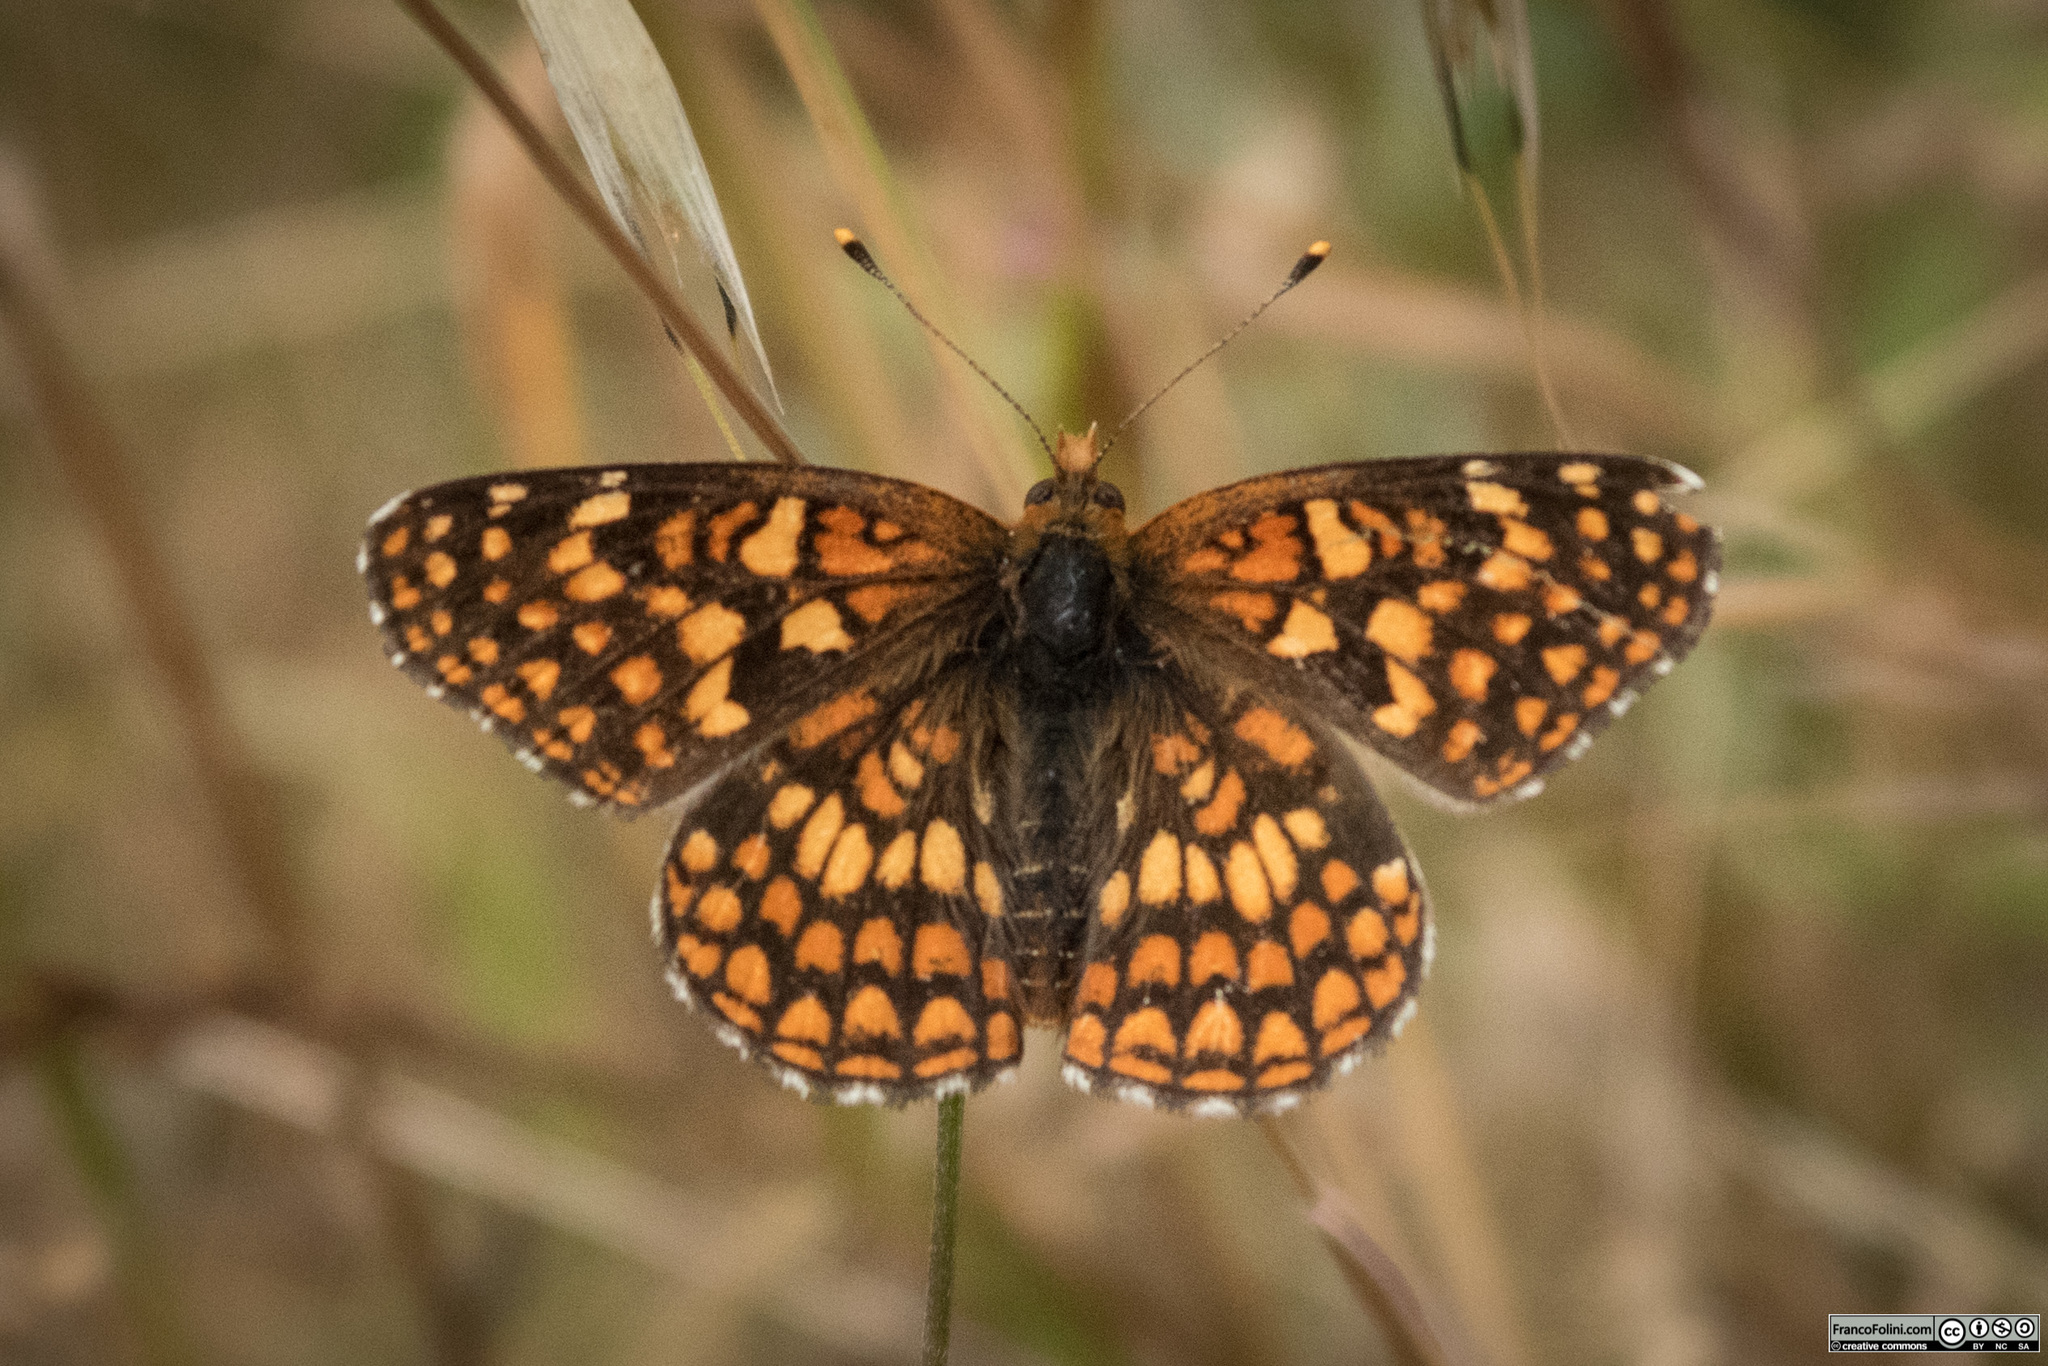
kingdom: Animalia
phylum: Arthropoda
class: Insecta
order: Lepidoptera
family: Nymphalidae
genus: Chlosyne
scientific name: Chlosyne palla
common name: Northern checkerspot
